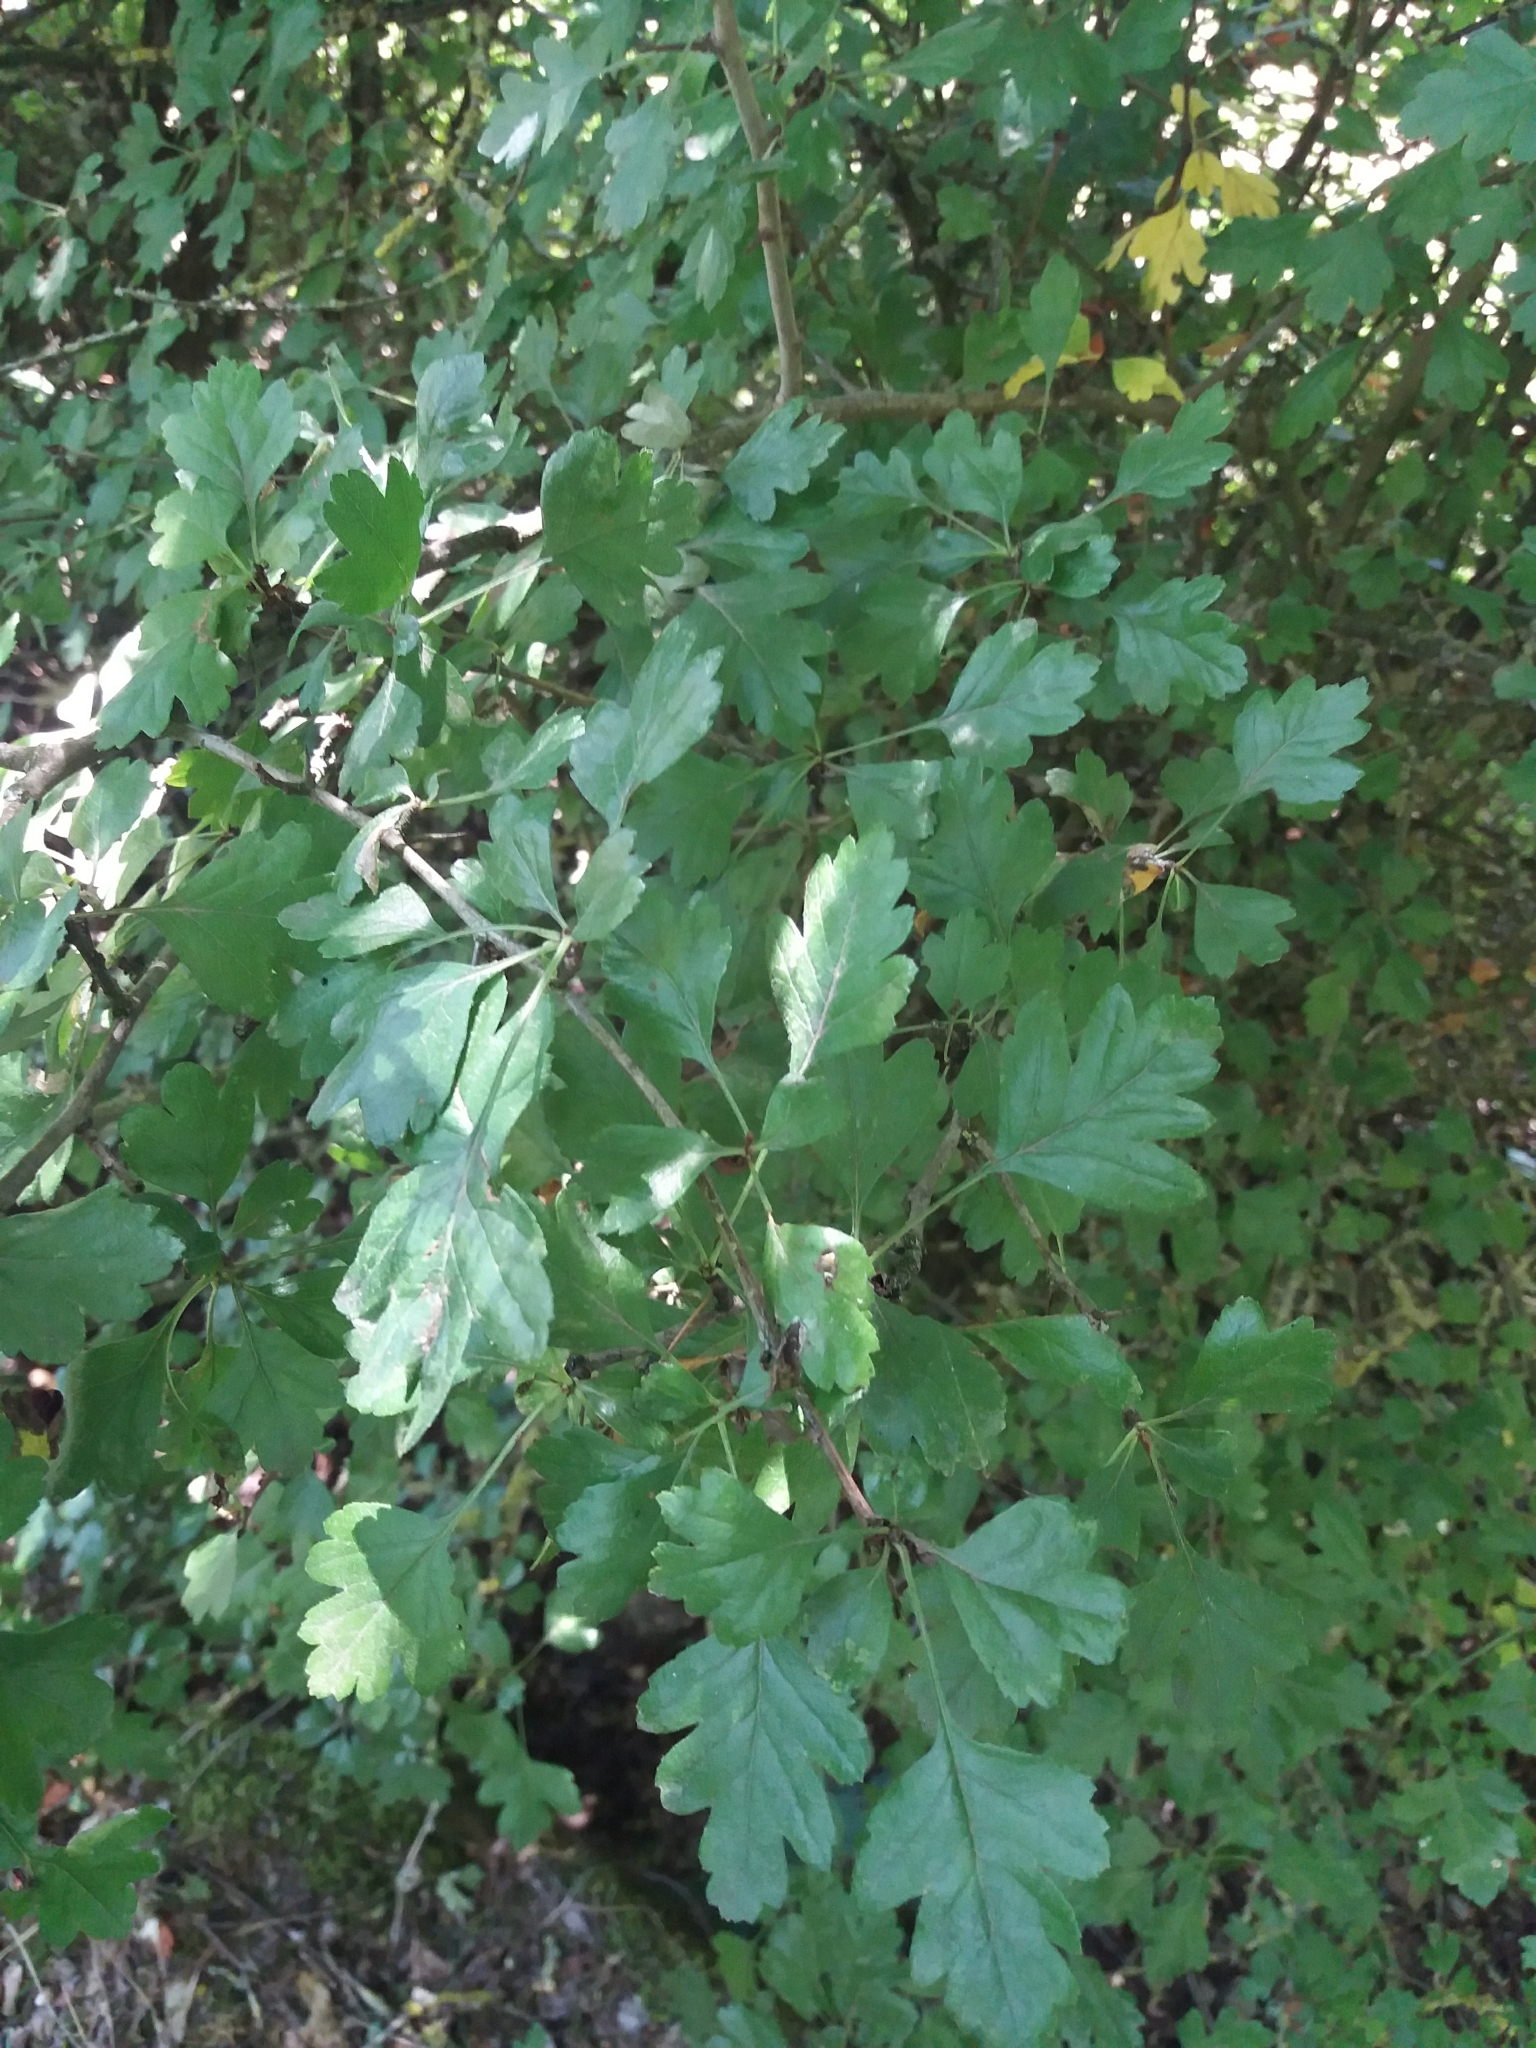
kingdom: Plantae
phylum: Tracheophyta
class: Magnoliopsida
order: Rosales
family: Rosaceae
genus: Crataegus
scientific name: Crataegus monogyna
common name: Hawthorn
